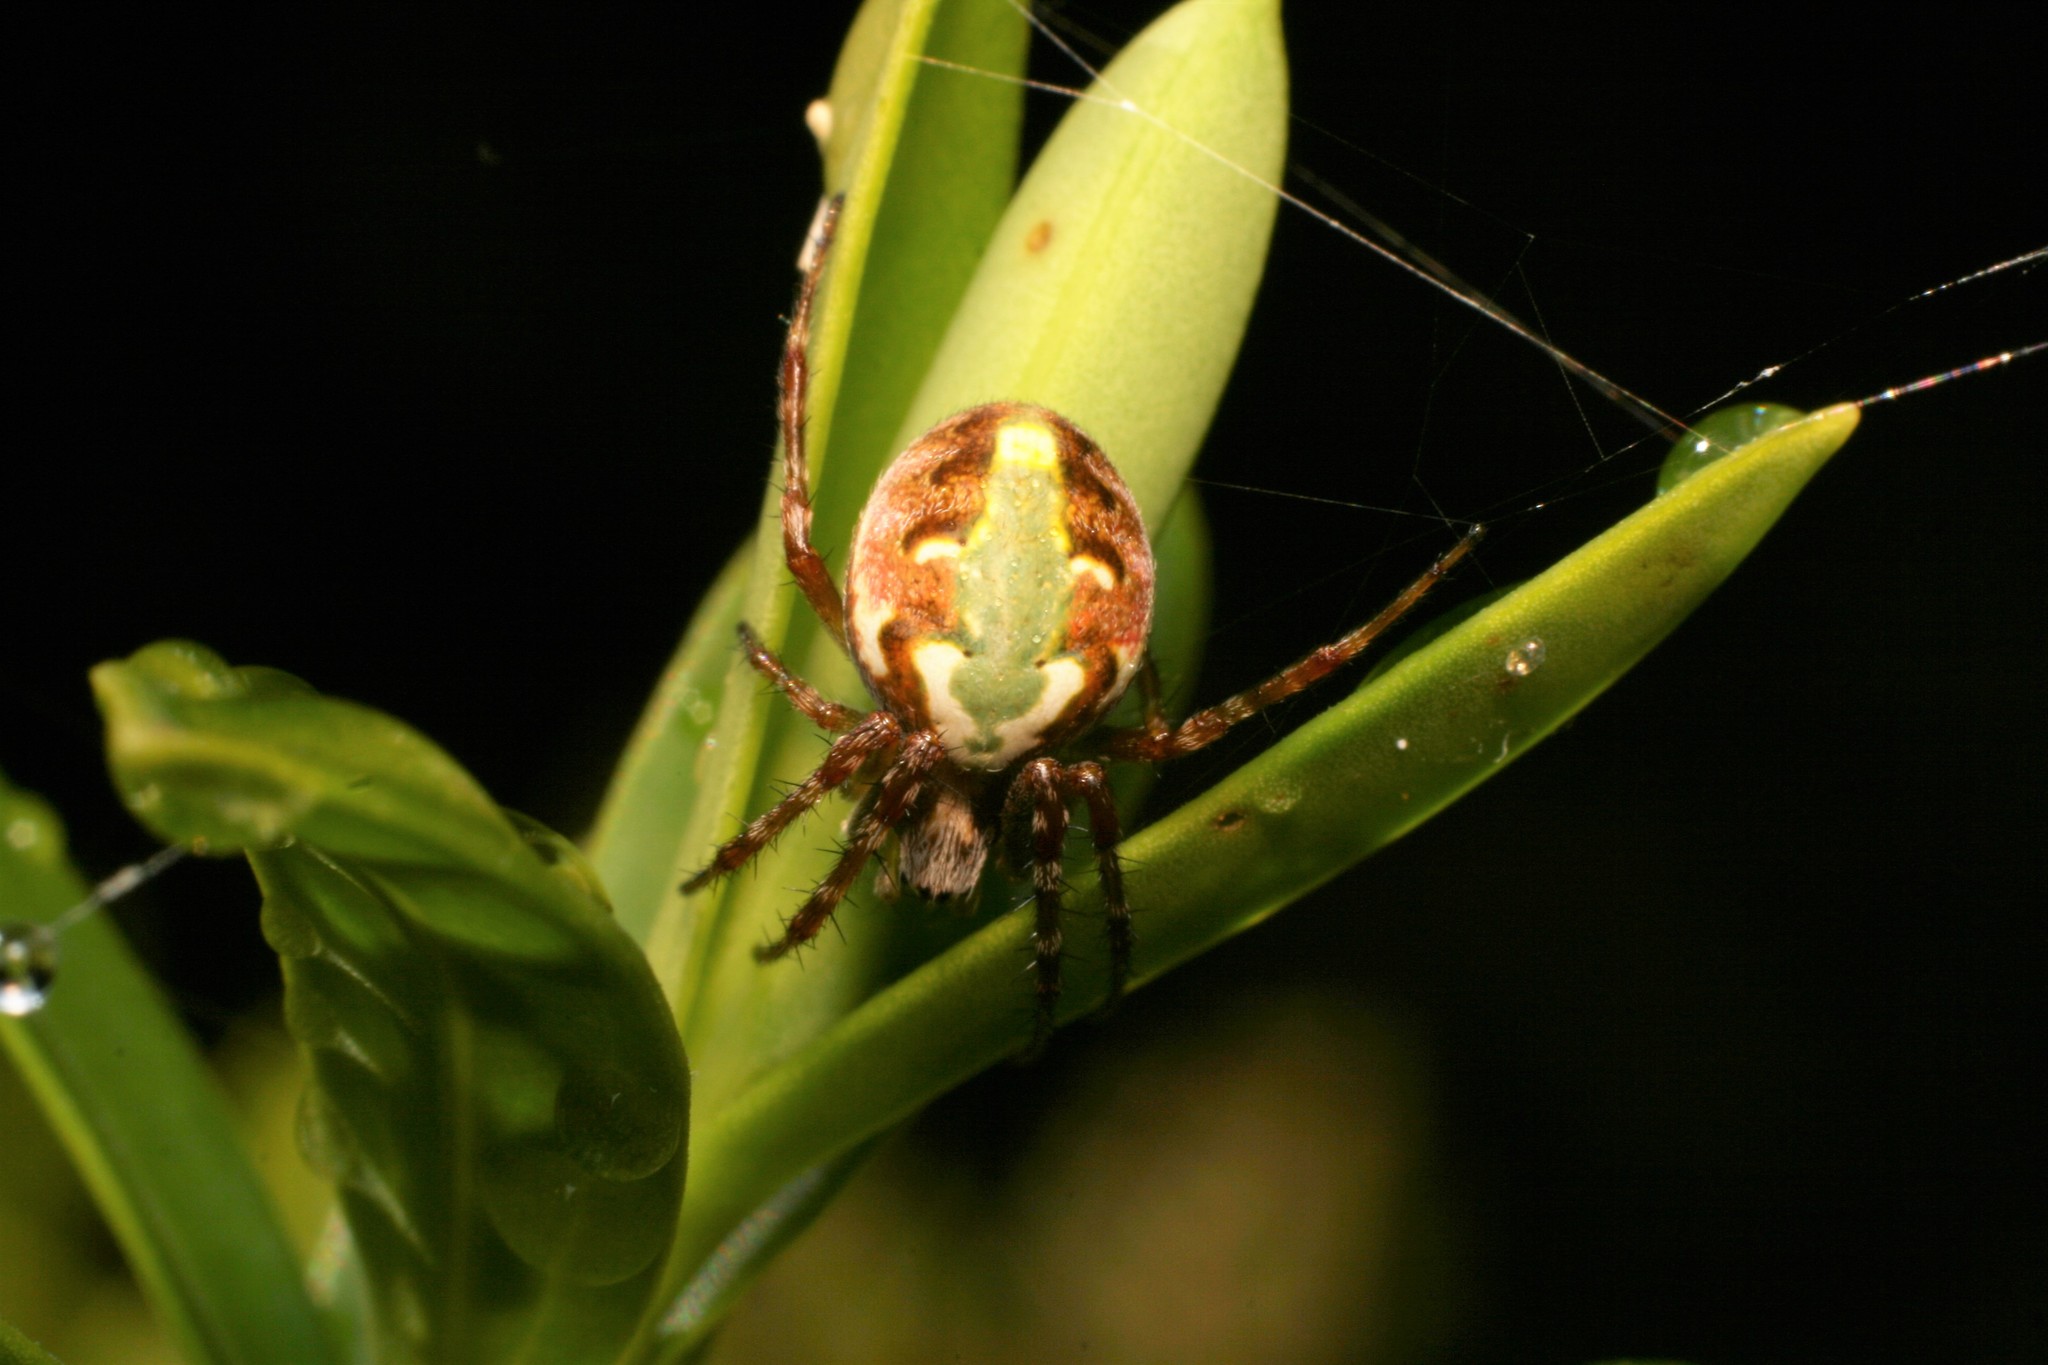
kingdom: Animalia
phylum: Arthropoda
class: Arachnida
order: Araneae
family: Araneidae
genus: Novaranea
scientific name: Novaranea queribunda
